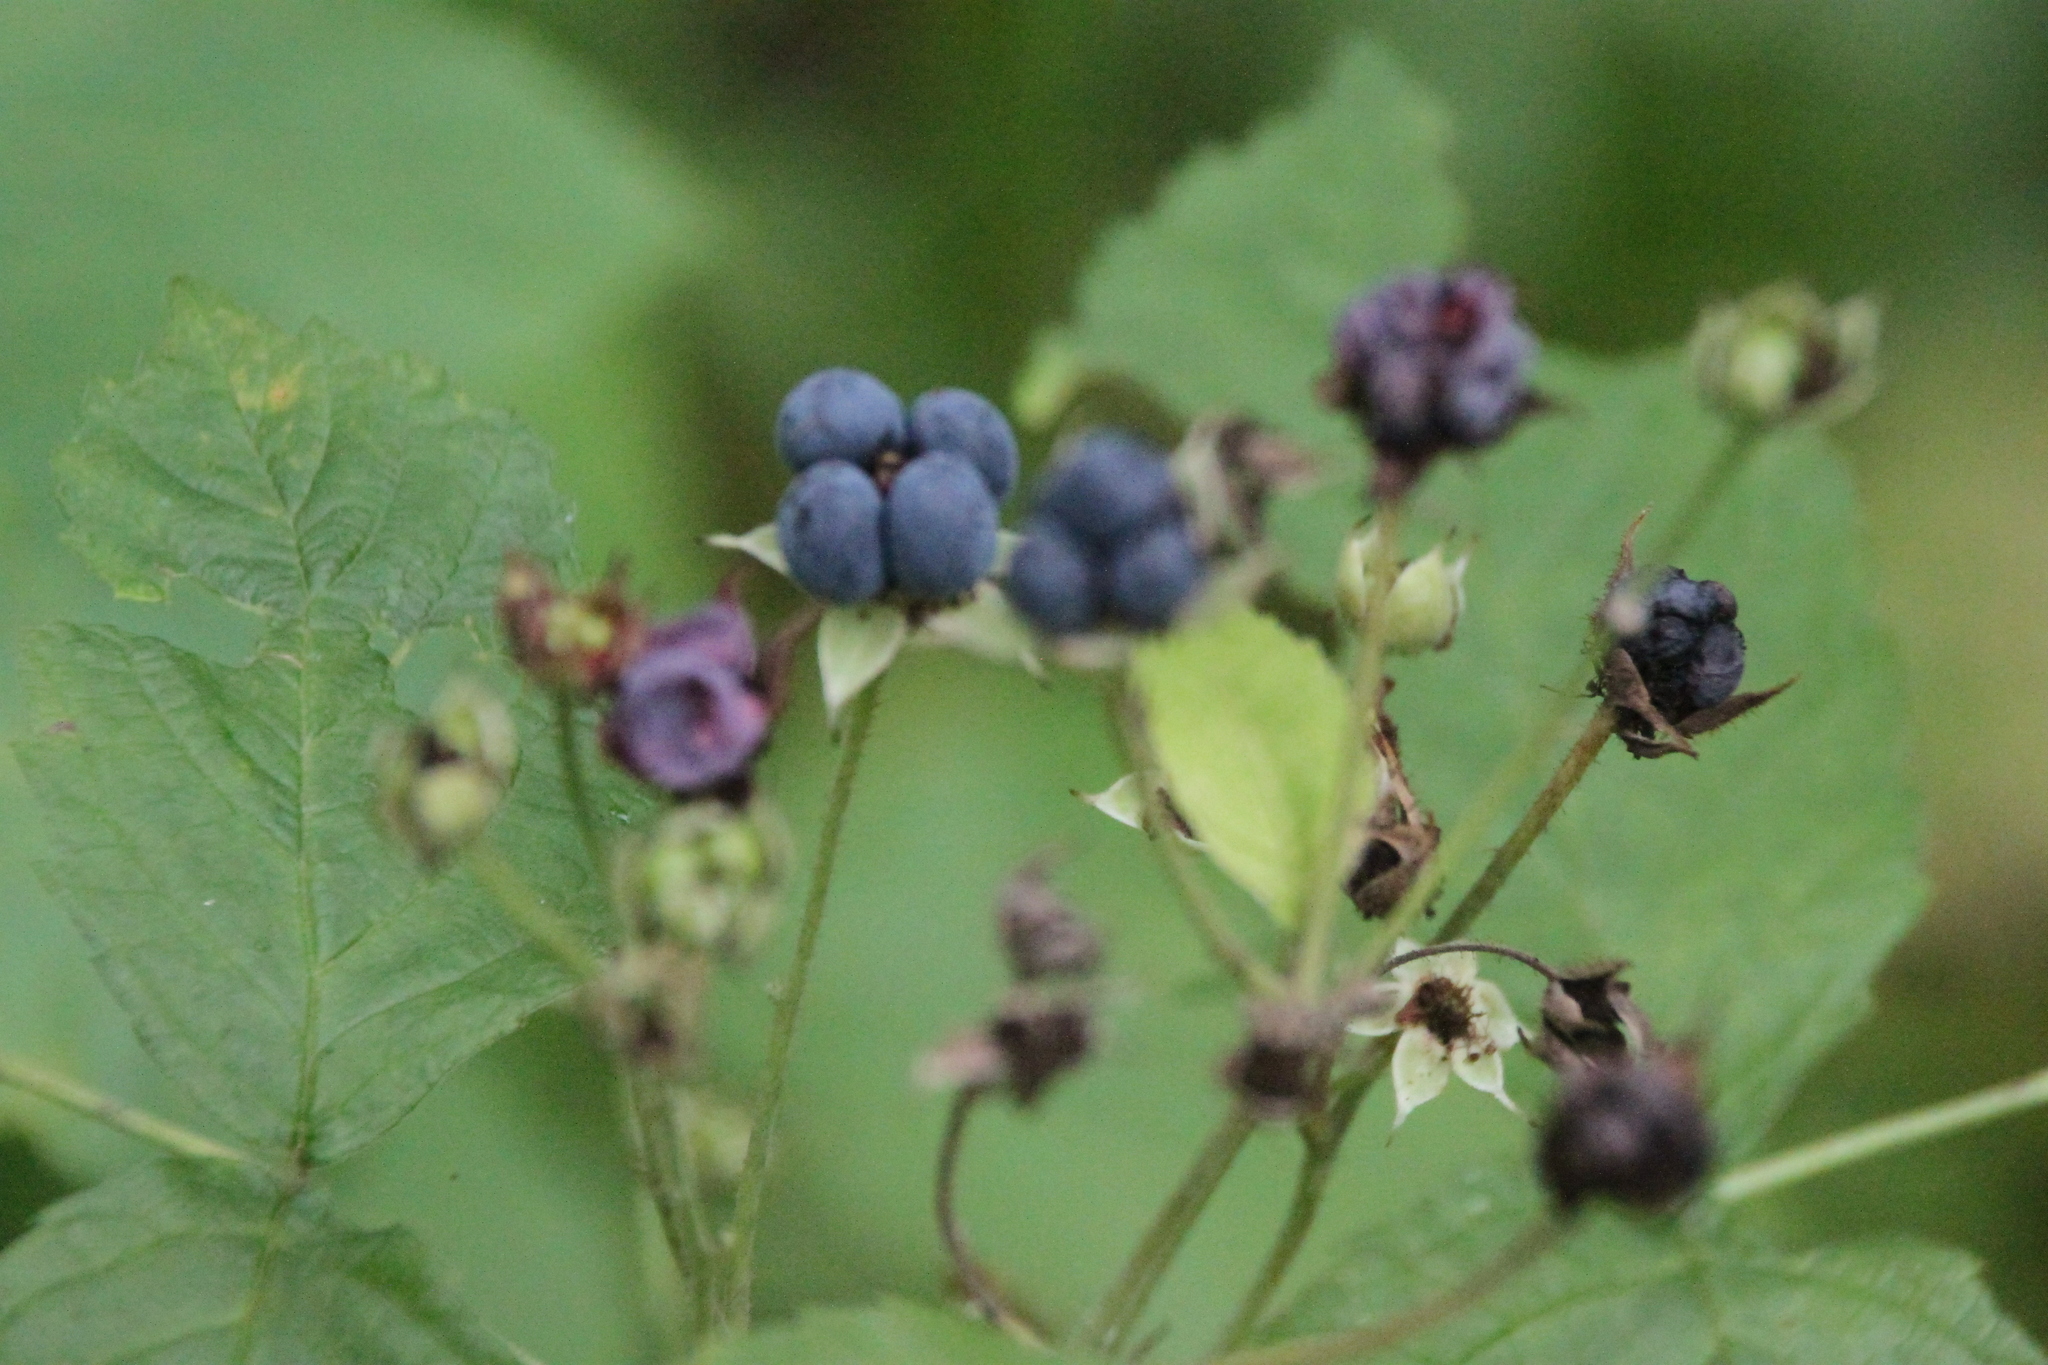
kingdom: Plantae
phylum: Tracheophyta
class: Magnoliopsida
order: Rosales
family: Rosaceae
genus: Rubus
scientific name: Rubus caesius
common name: Dewberry
